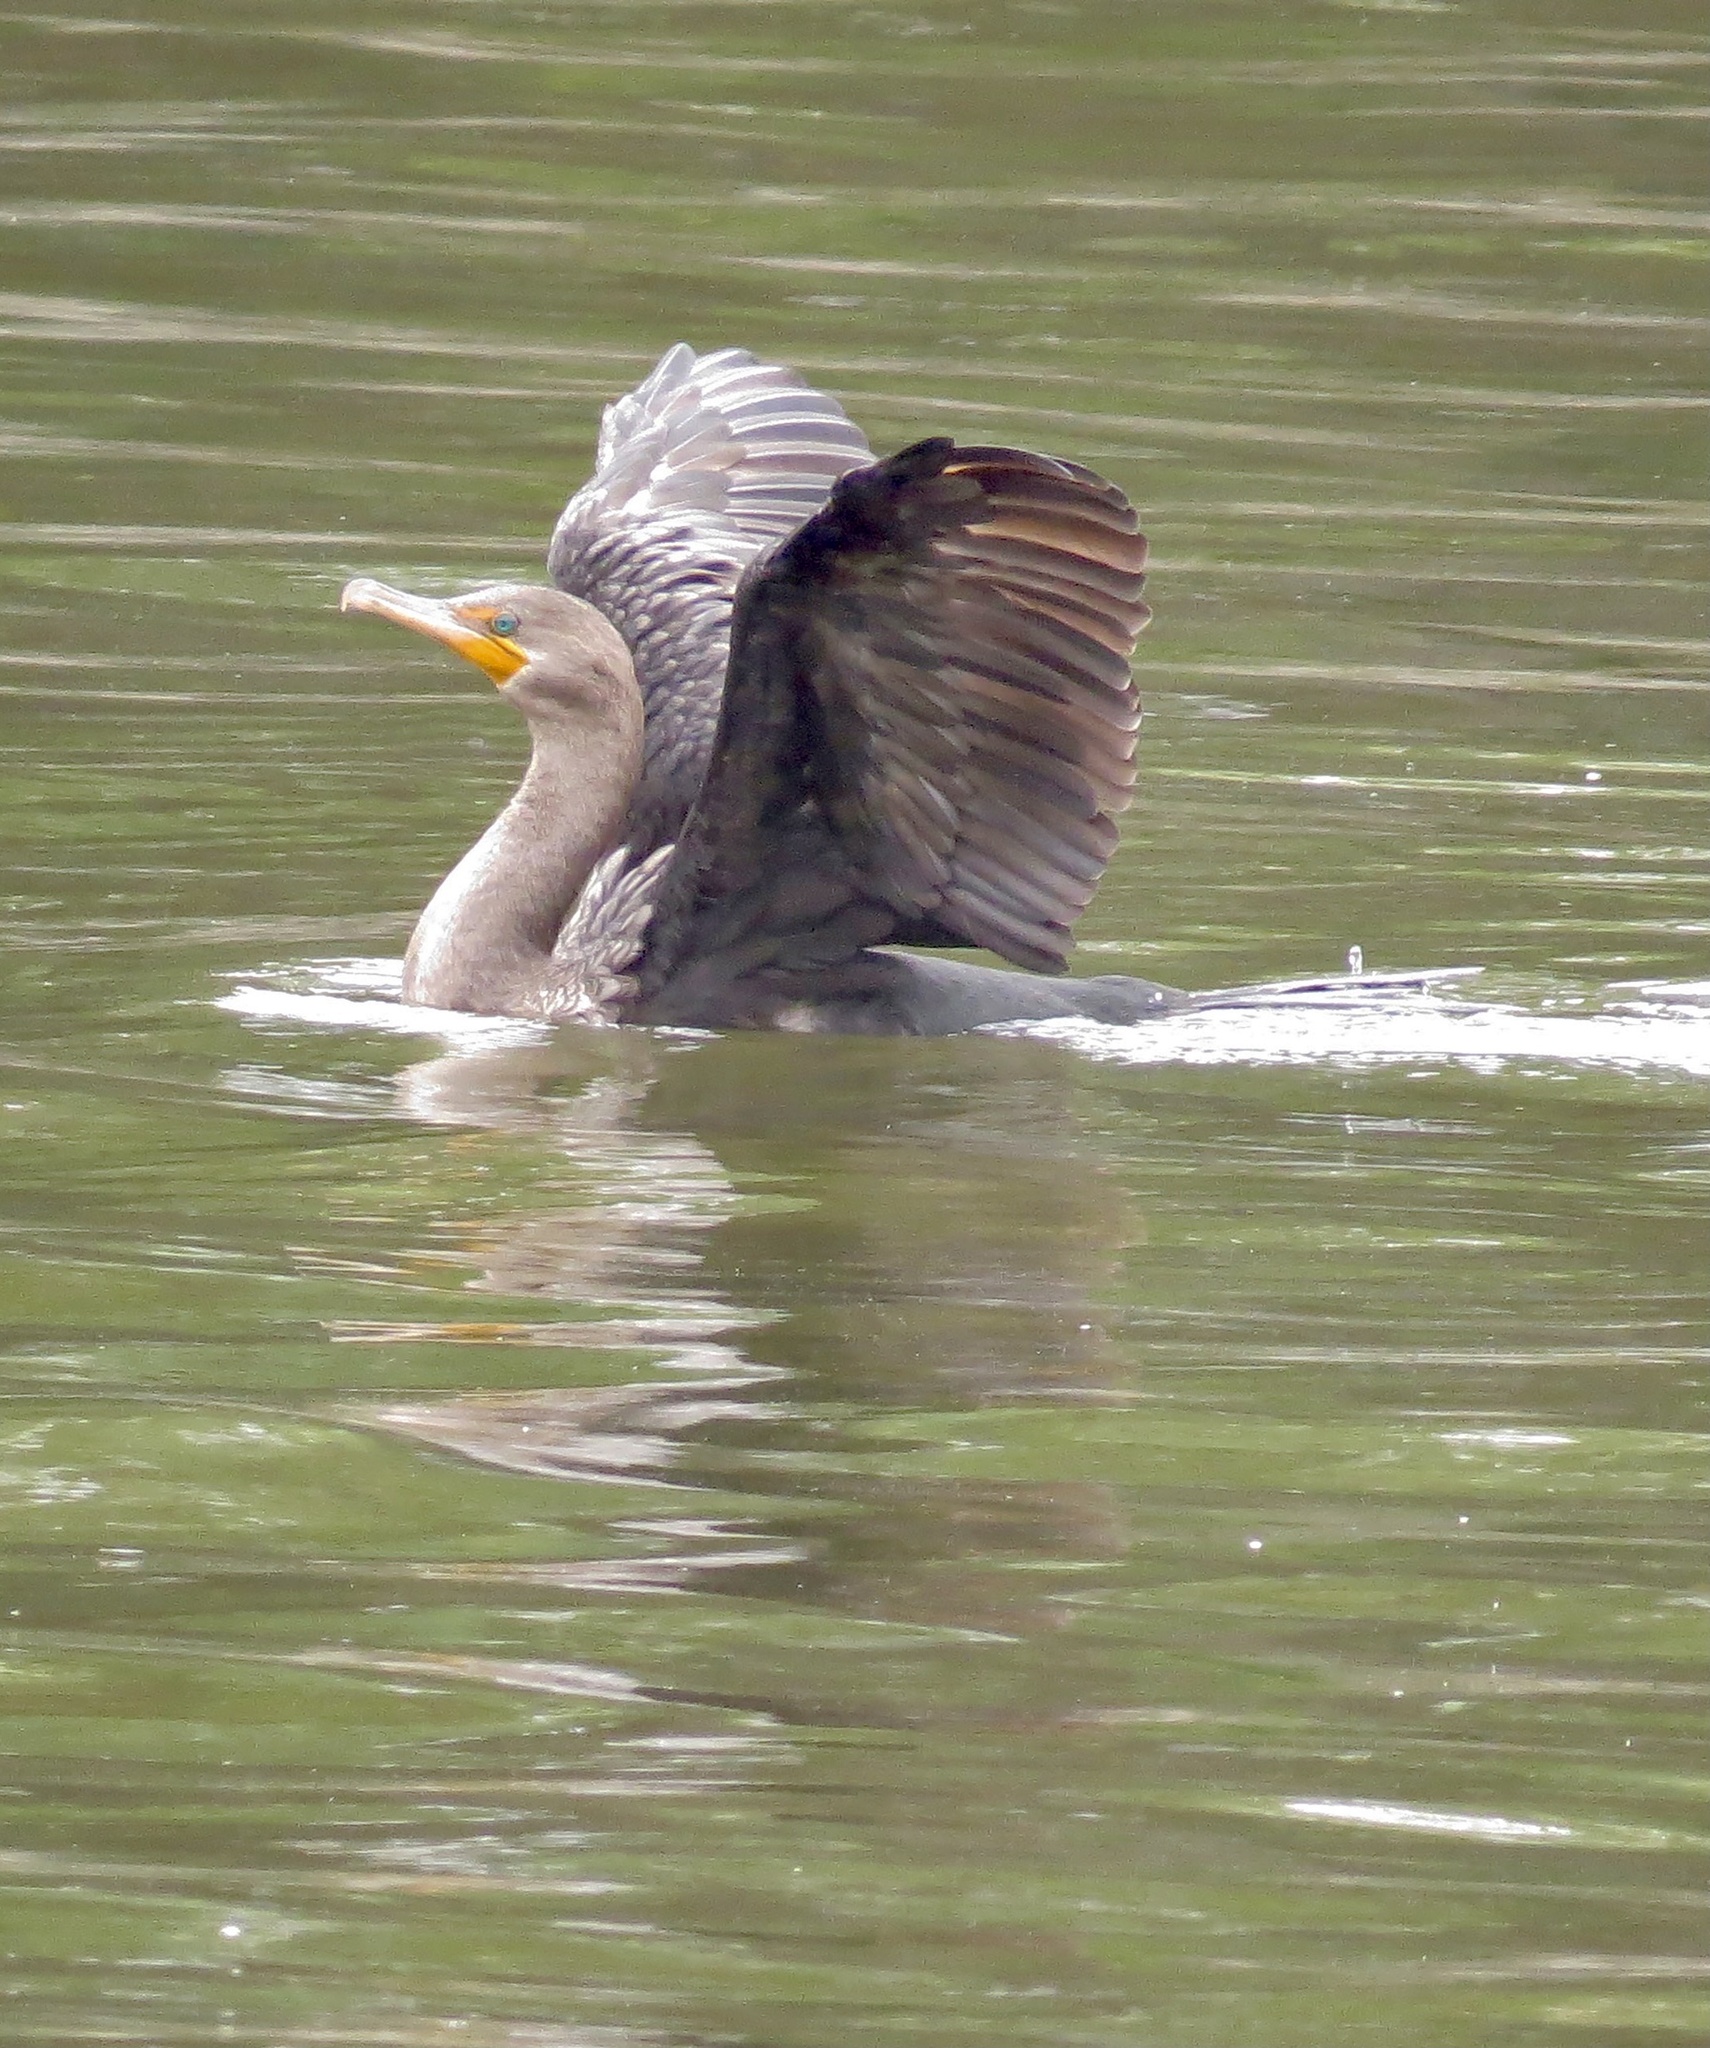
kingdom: Animalia
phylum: Chordata
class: Aves
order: Suliformes
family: Phalacrocoracidae
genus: Phalacrocorax
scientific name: Phalacrocorax auritus
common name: Double-crested cormorant
